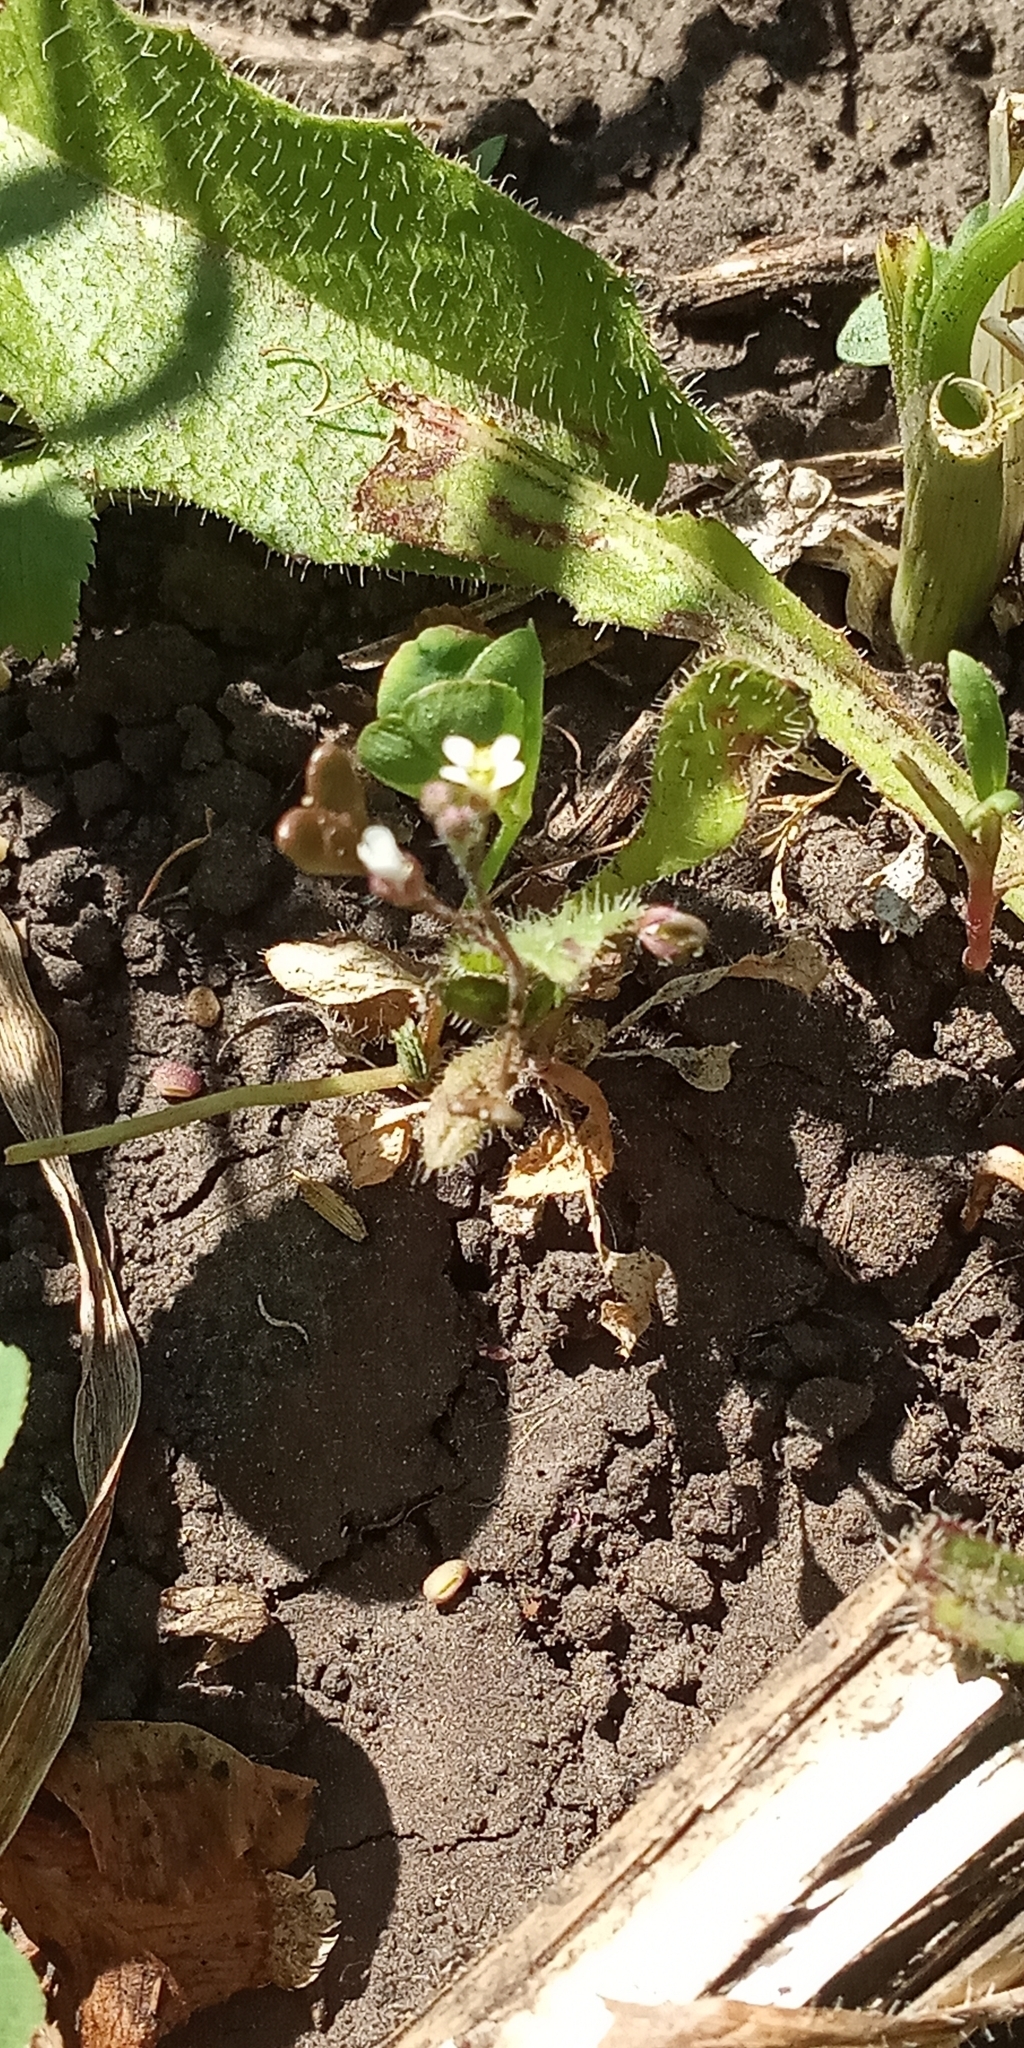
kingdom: Plantae
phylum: Tracheophyta
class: Magnoliopsida
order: Brassicales
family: Brassicaceae
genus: Capsella
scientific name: Capsella bursa-pastoris
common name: Shepherd's purse
